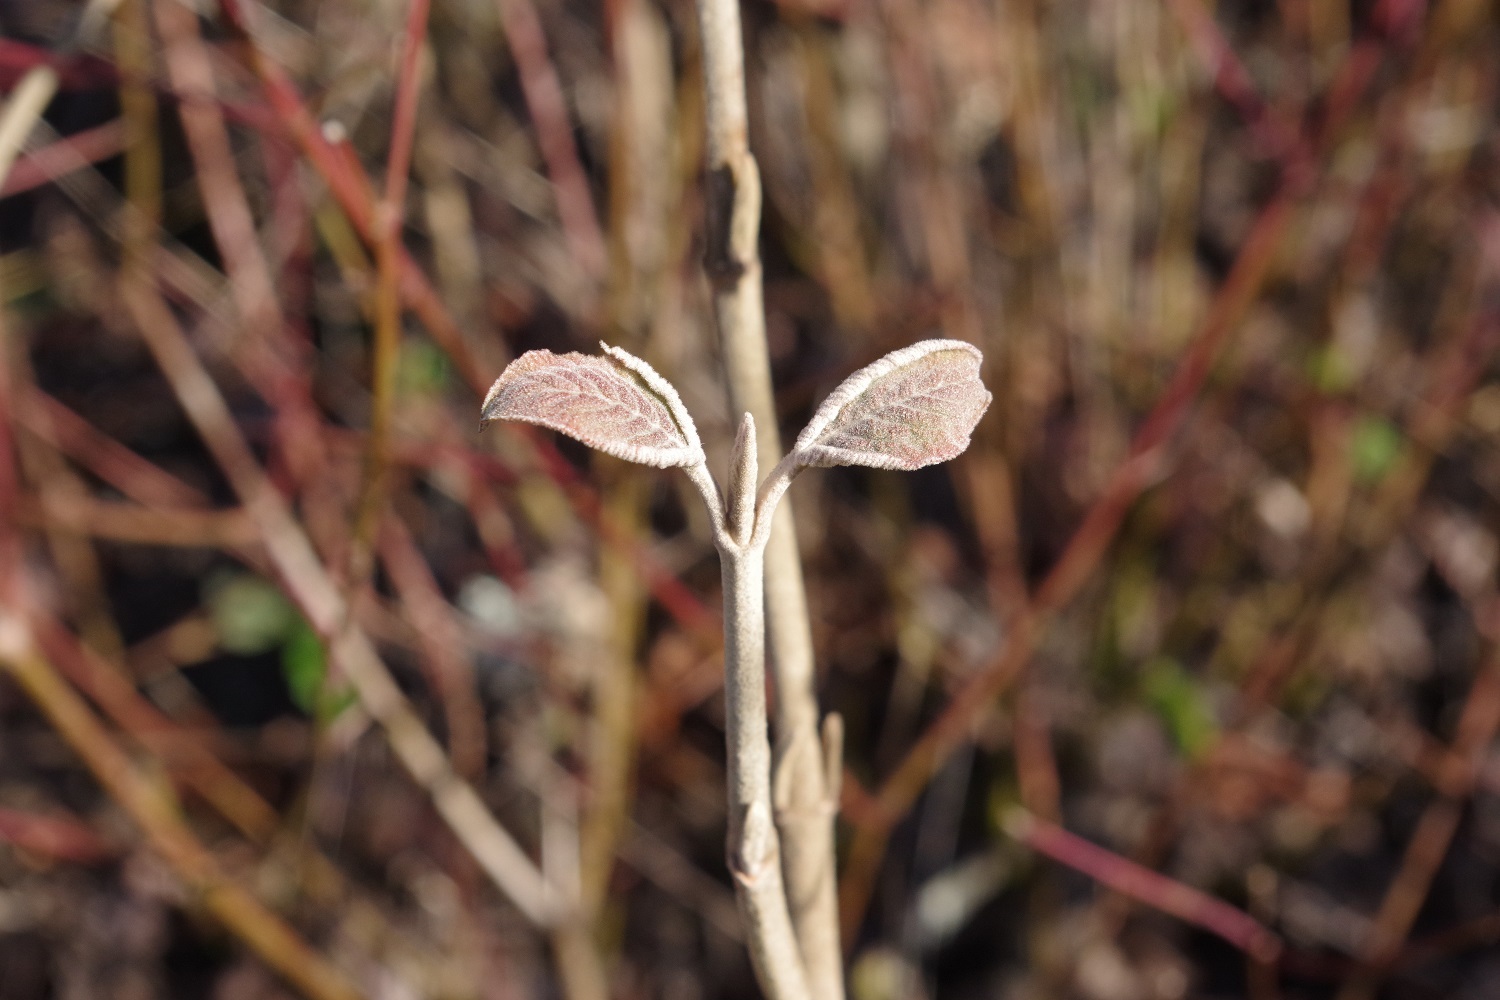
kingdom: Plantae
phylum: Tracheophyta
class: Magnoliopsida
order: Dipsacales
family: Viburnaceae
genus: Viburnum
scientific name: Viburnum lantana
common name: Wayfaring tree
